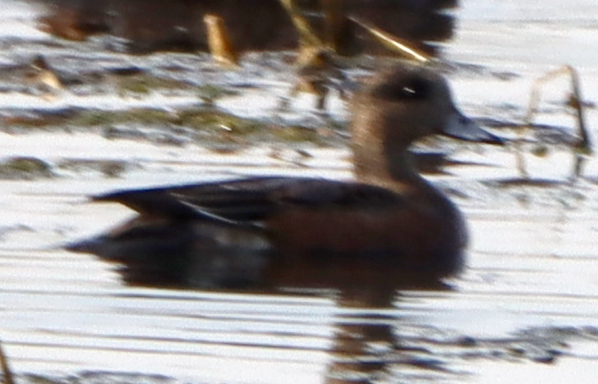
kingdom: Animalia
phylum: Chordata
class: Aves
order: Anseriformes
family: Anatidae
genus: Mareca
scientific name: Mareca americana
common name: American wigeon
